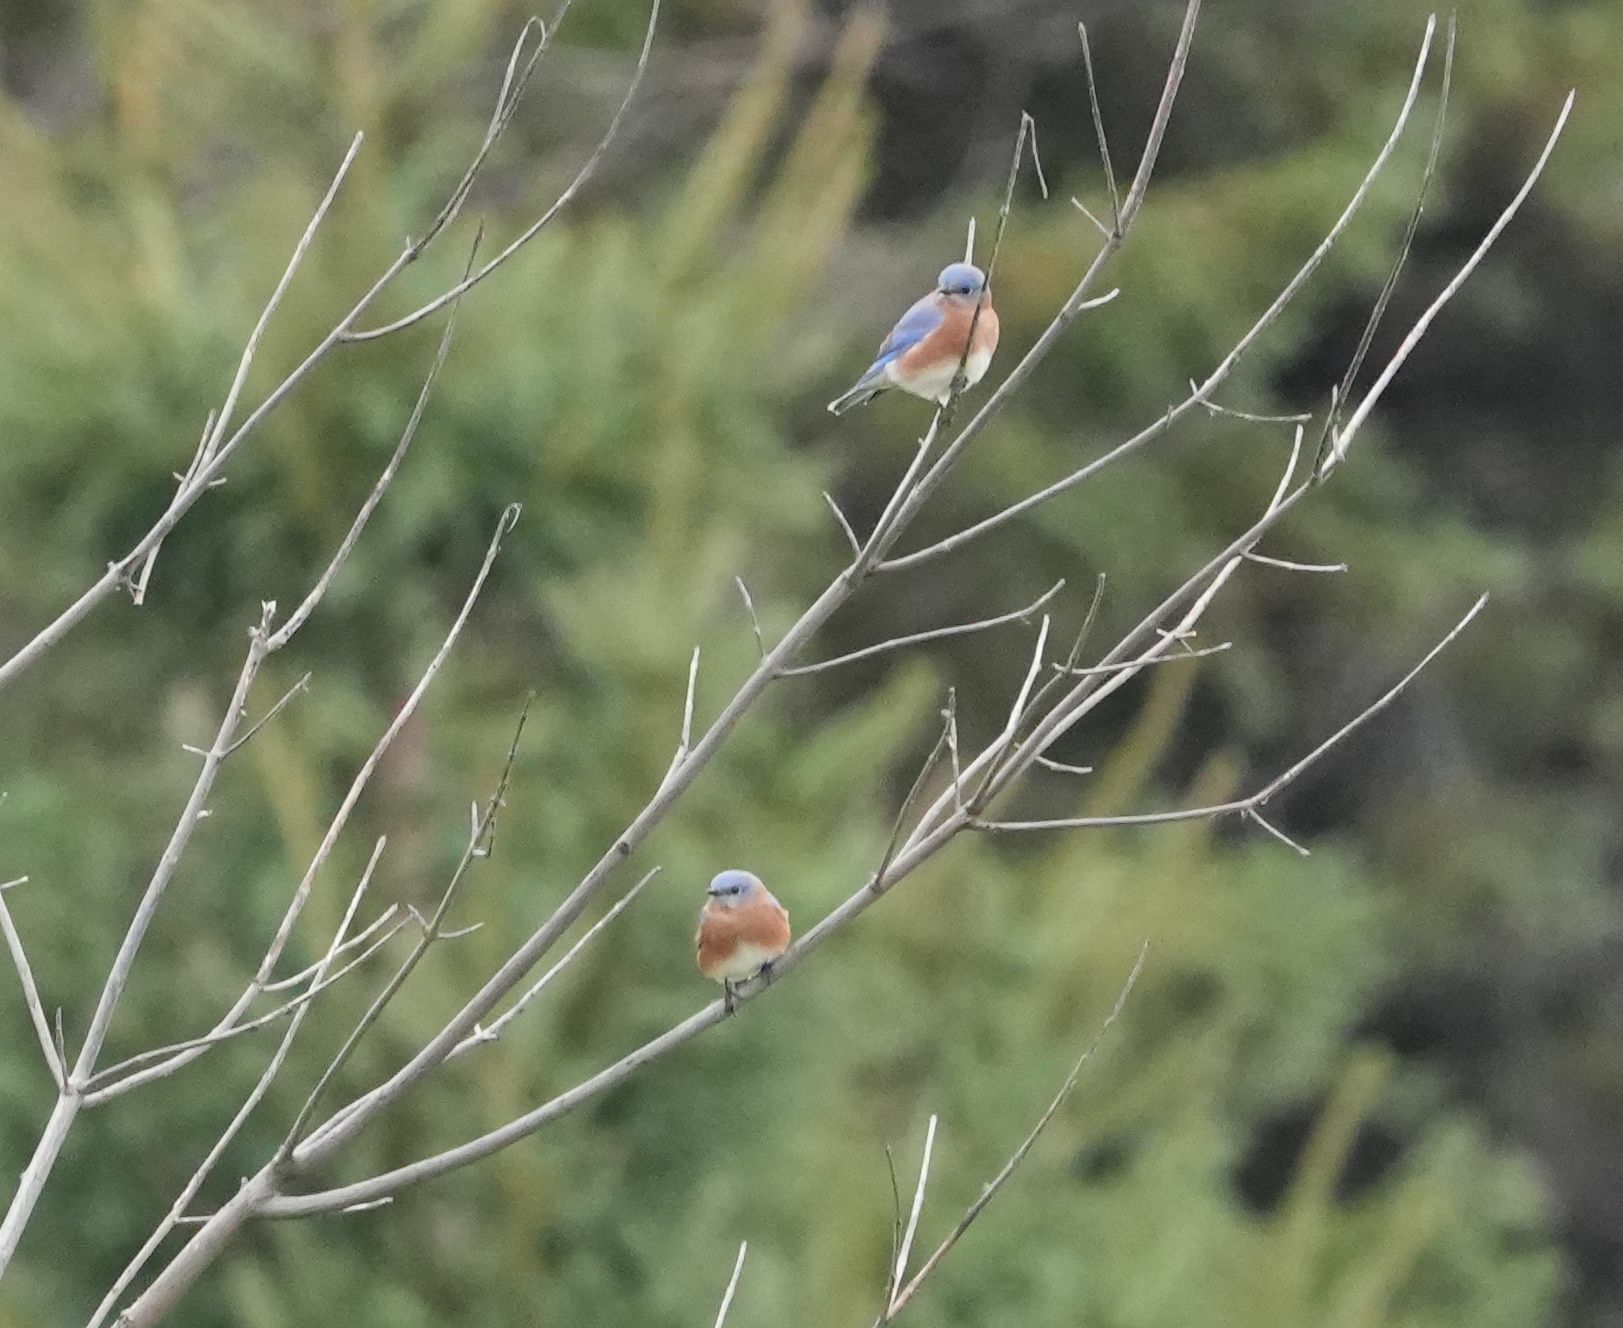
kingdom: Animalia
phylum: Chordata
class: Aves
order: Passeriformes
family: Turdidae
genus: Sialia
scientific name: Sialia sialis
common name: Eastern bluebird
